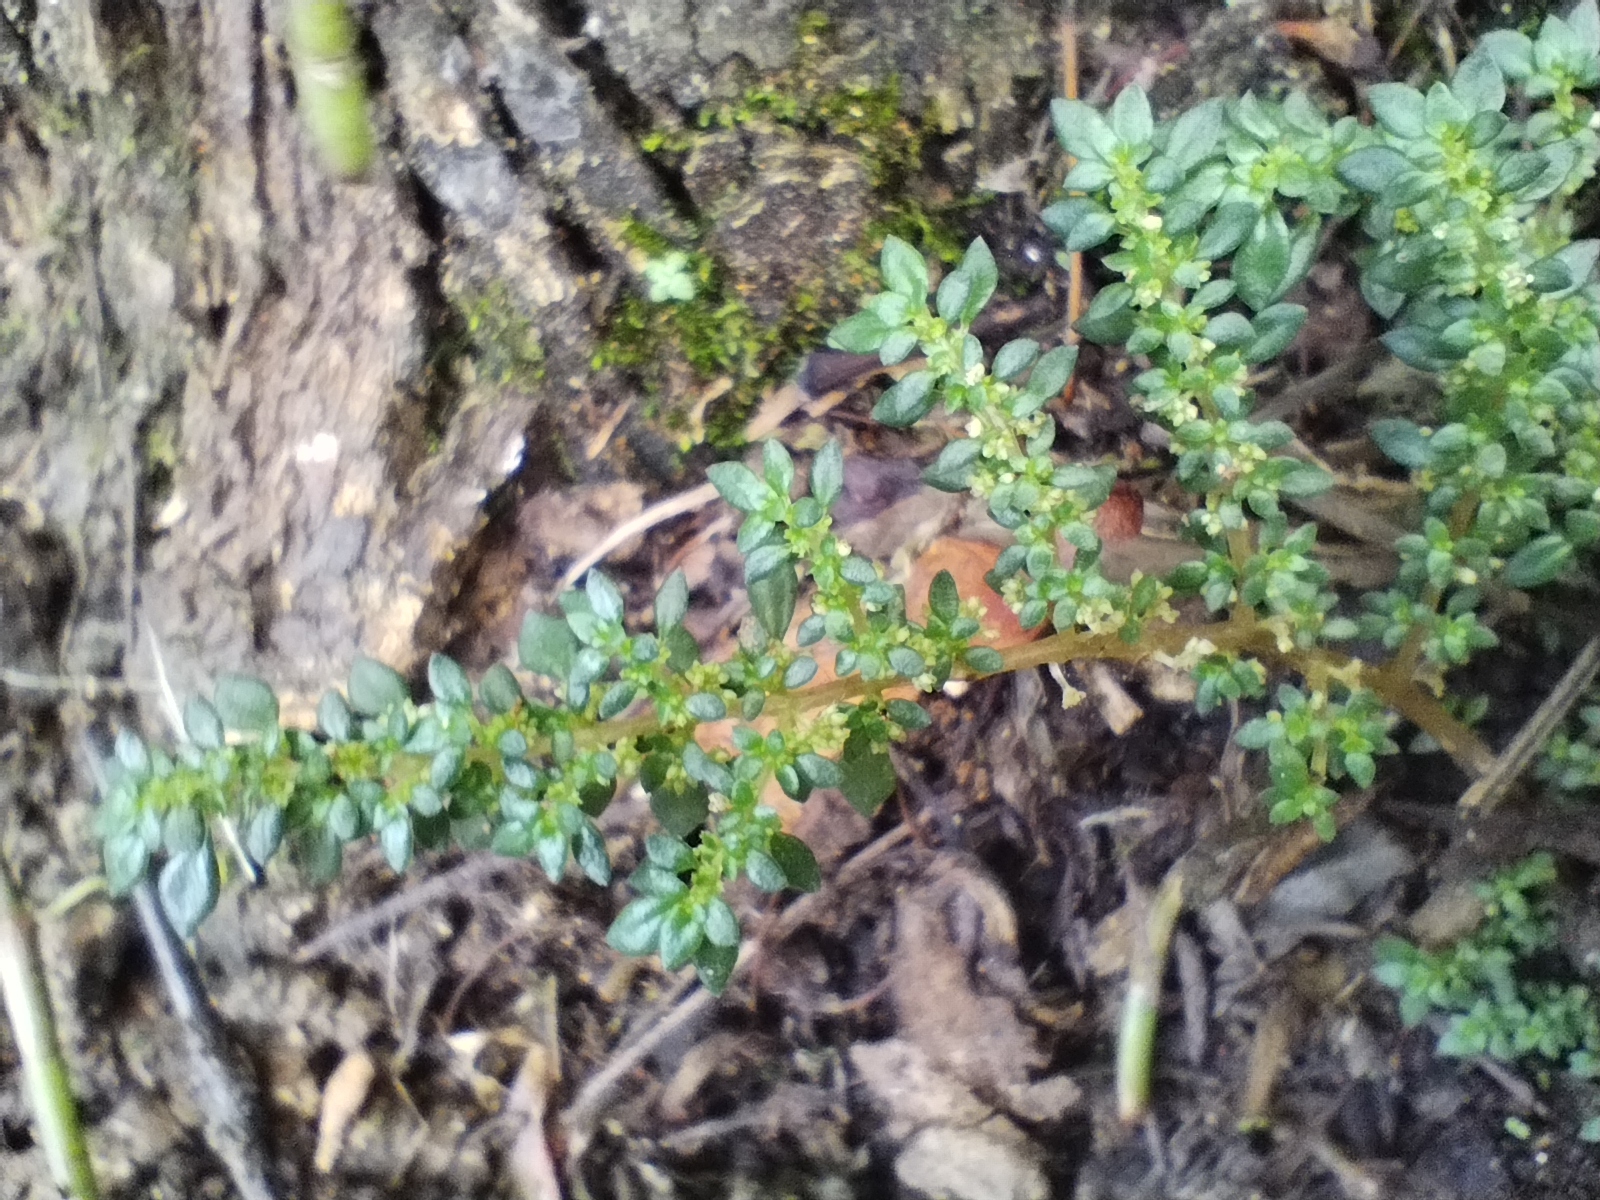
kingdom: Plantae
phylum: Tracheophyta
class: Magnoliopsida
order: Rosales
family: Urticaceae
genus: Pilea
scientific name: Pilea microphylla
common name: Artillery-plant
